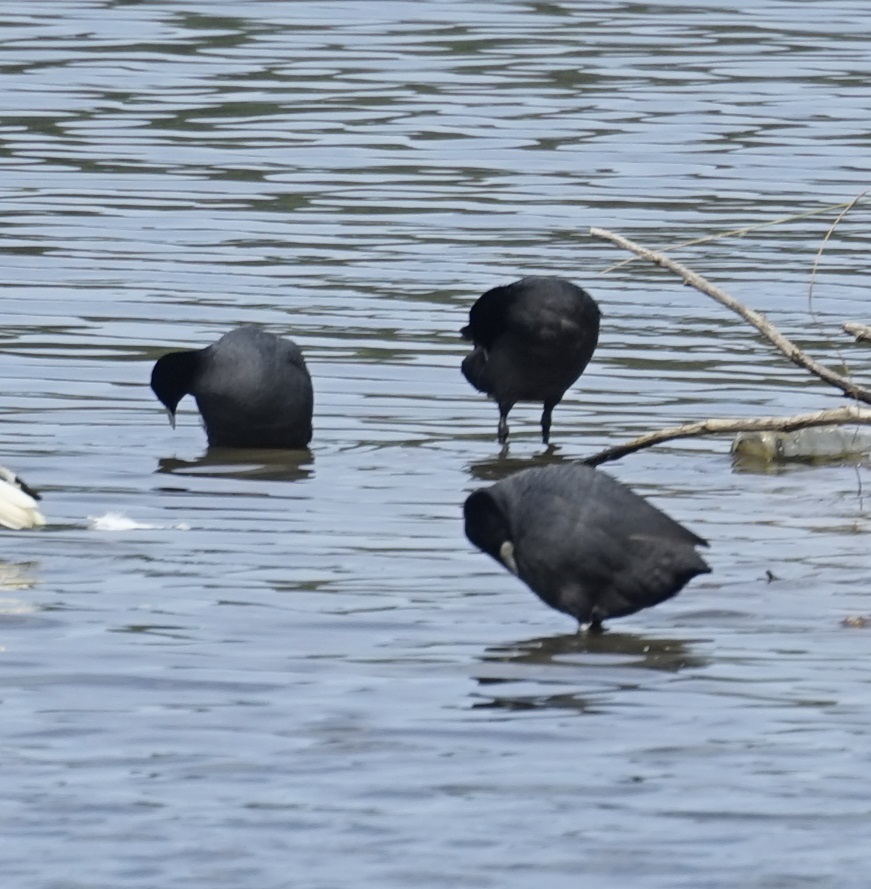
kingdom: Animalia
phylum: Chordata
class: Aves
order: Gruiformes
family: Rallidae
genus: Fulica
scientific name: Fulica atra
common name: Eurasian coot
